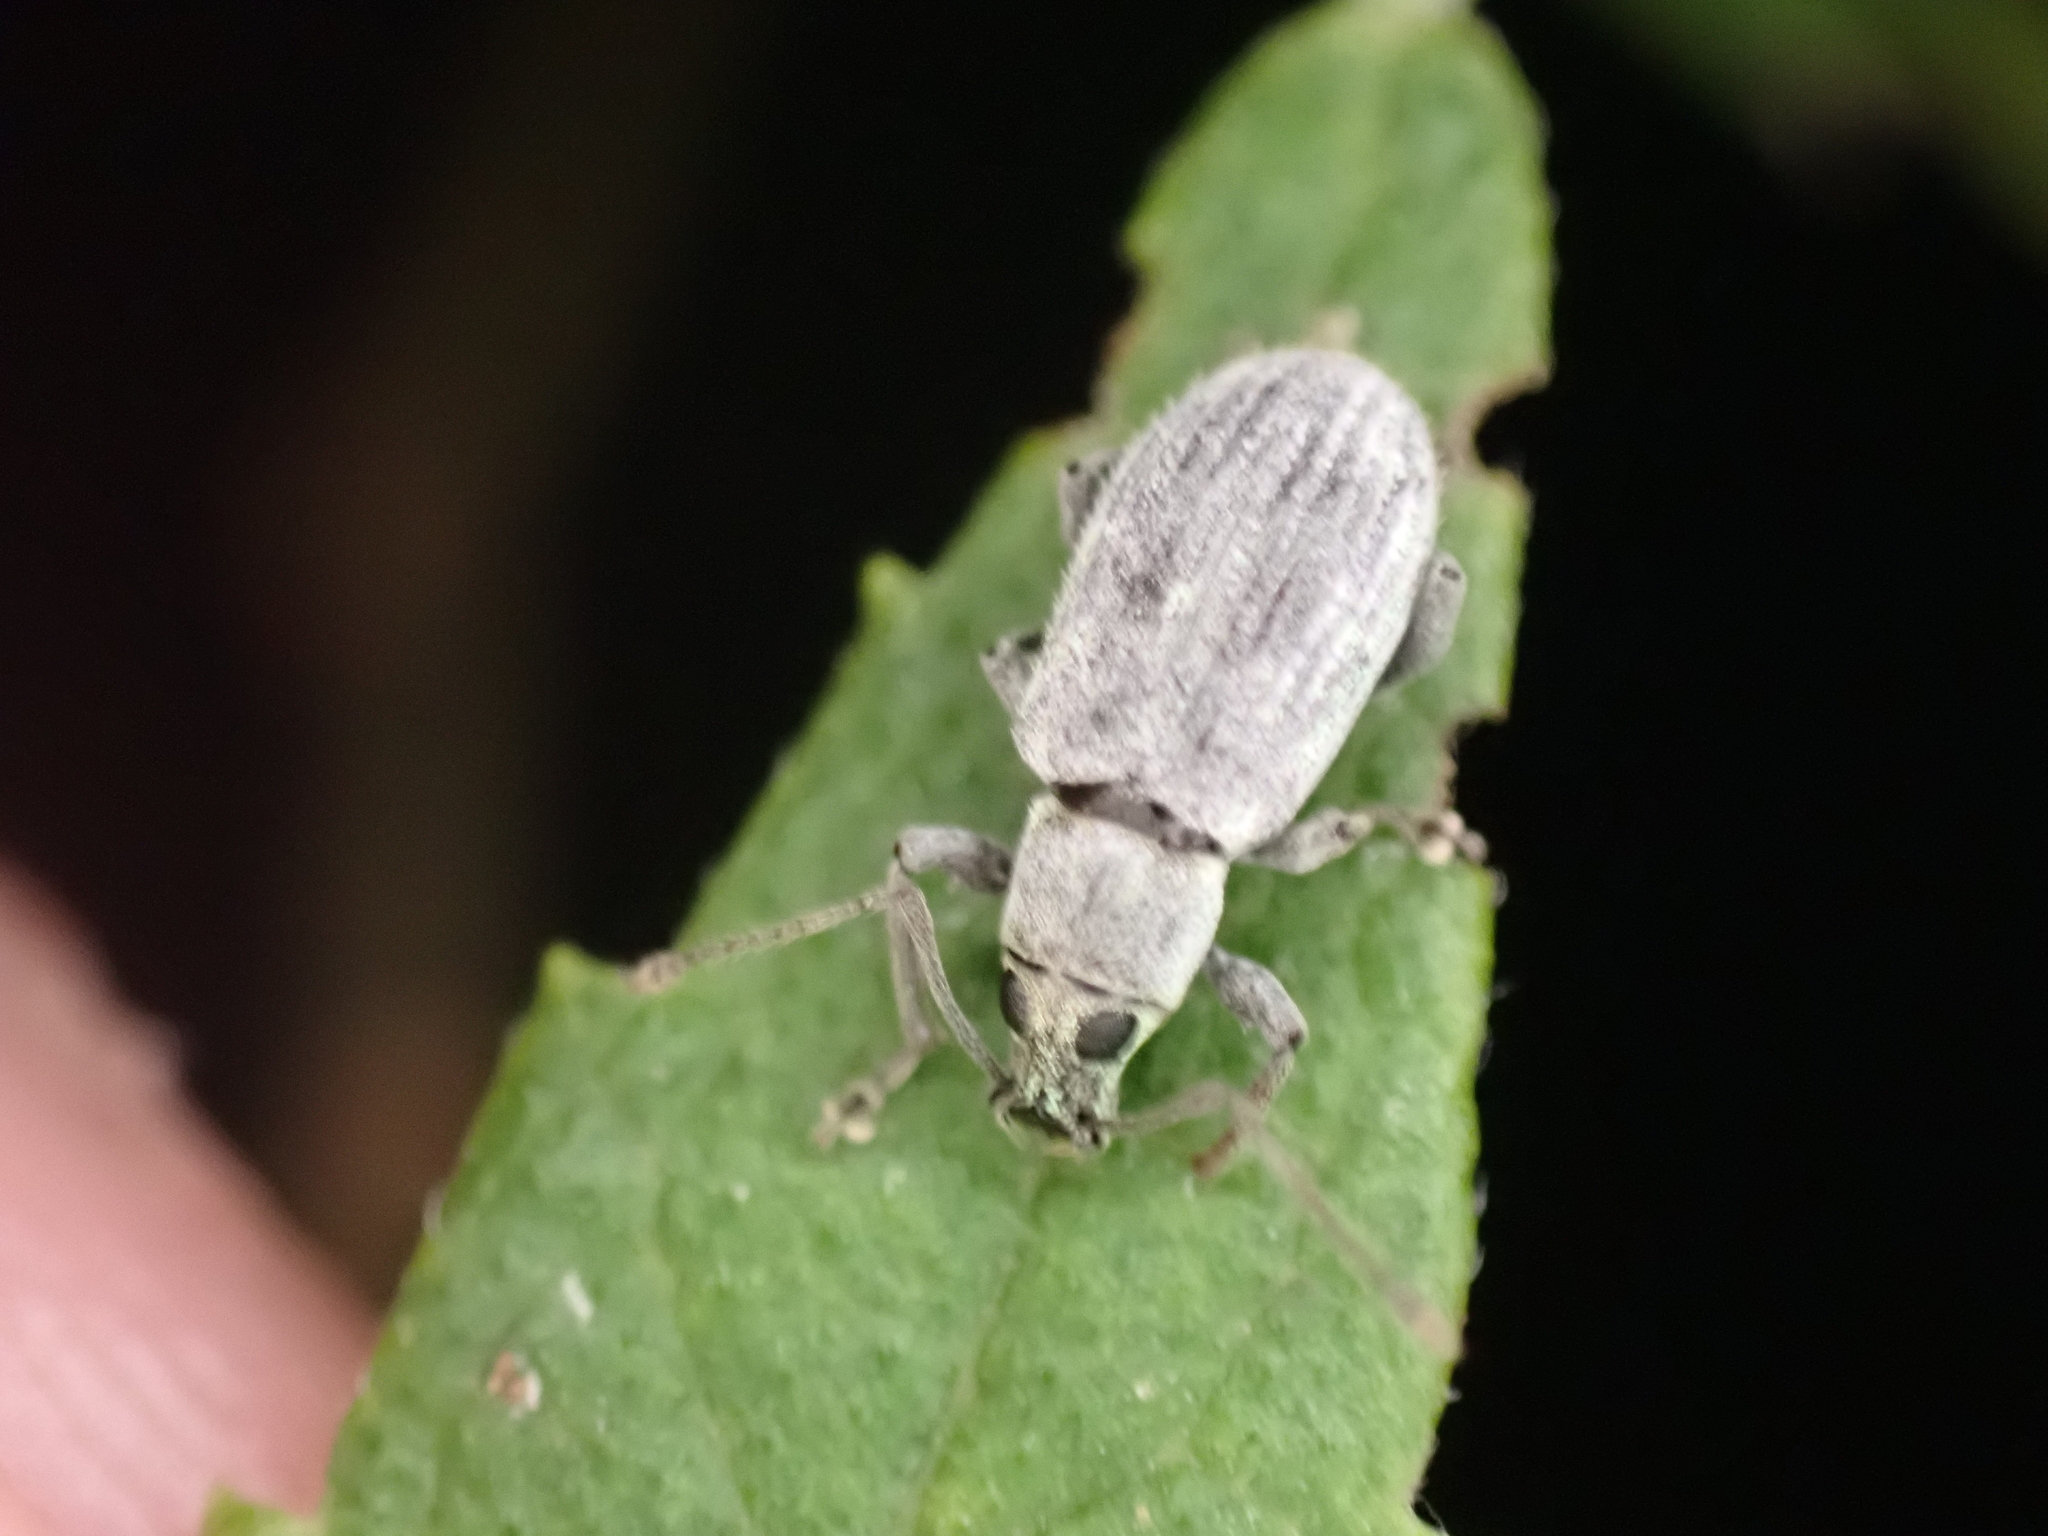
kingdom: Animalia
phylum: Arthropoda
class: Insecta
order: Coleoptera
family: Curculionidae
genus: Cyrtepistomus
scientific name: Cyrtepistomus castaneus
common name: Weevil
